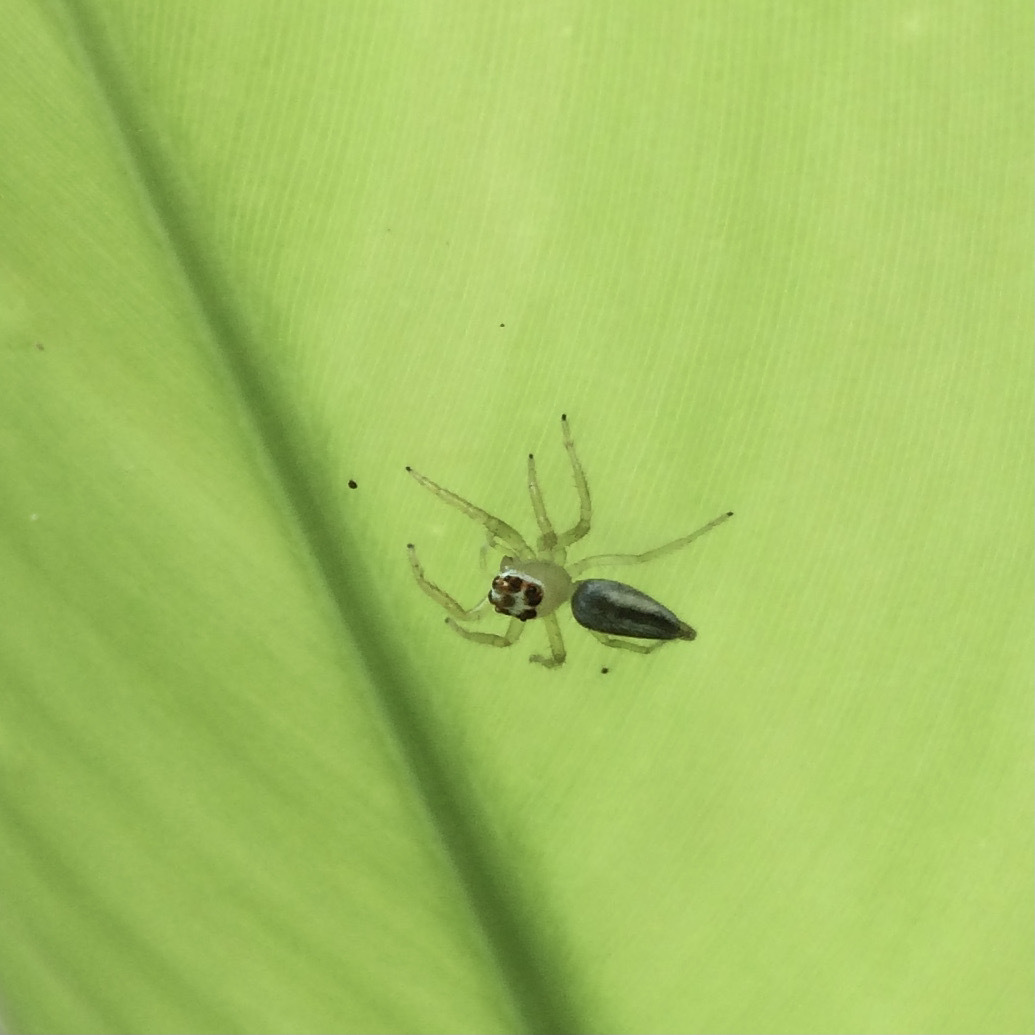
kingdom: Animalia
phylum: Arthropoda
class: Arachnida
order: Araneae
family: Salticidae
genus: Telamonia
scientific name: Telamonia dimidiata
